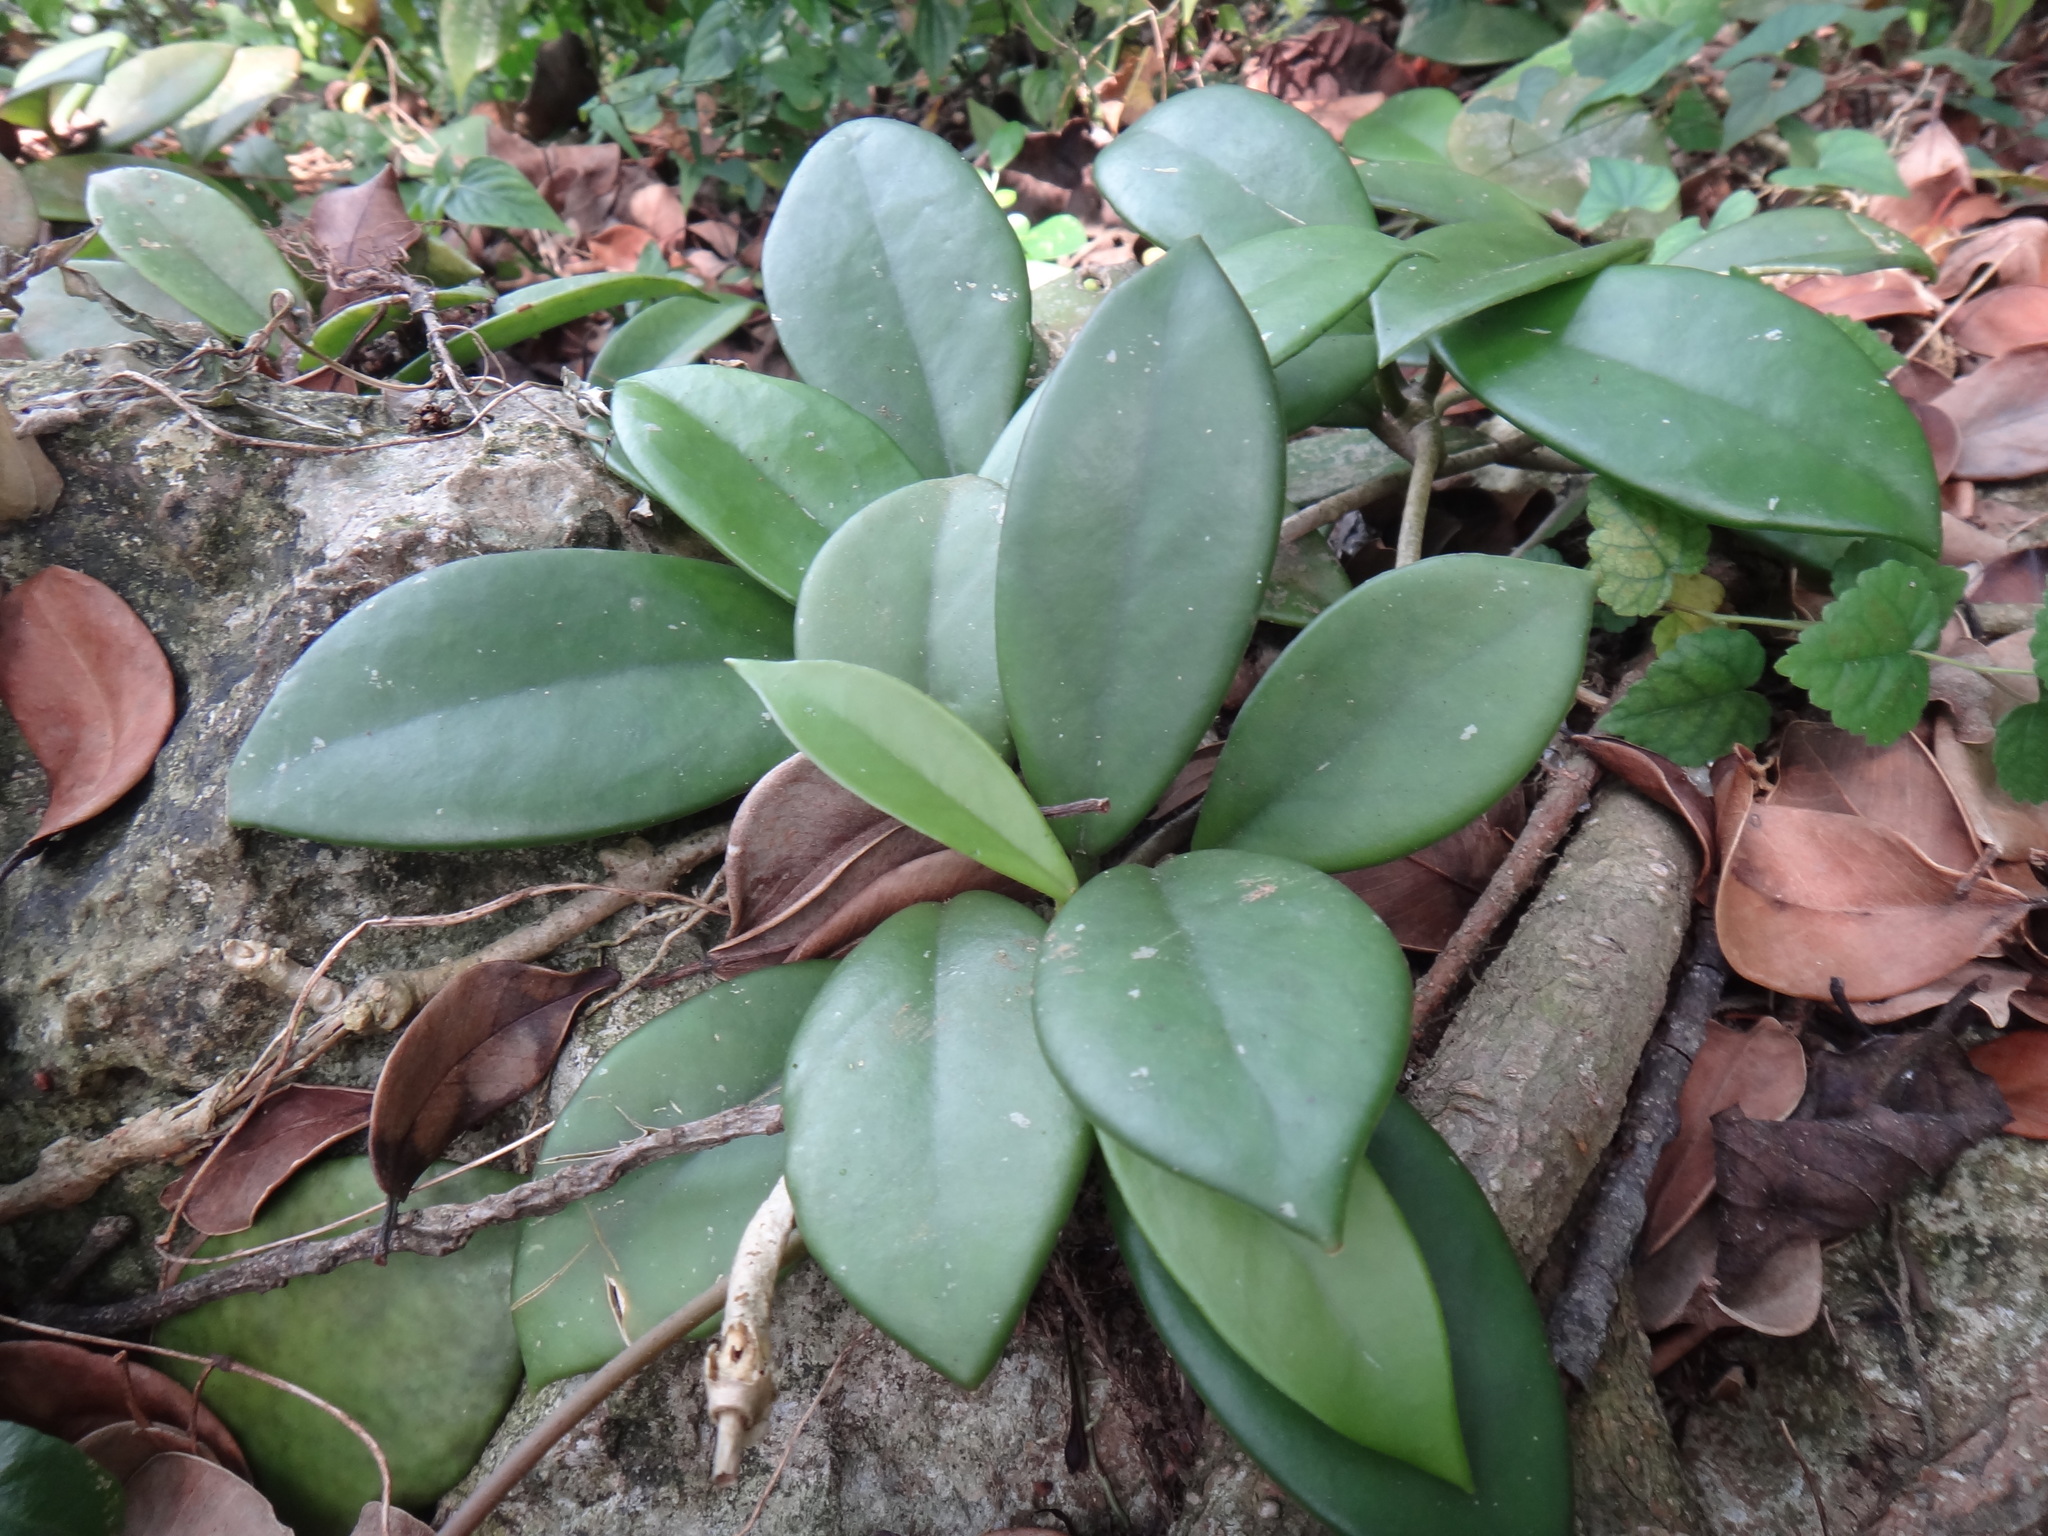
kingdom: Plantae
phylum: Tracheophyta
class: Magnoliopsida
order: Gentianales
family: Apocynaceae
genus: Hoya
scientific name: Hoya carnosa
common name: Honeyplant
